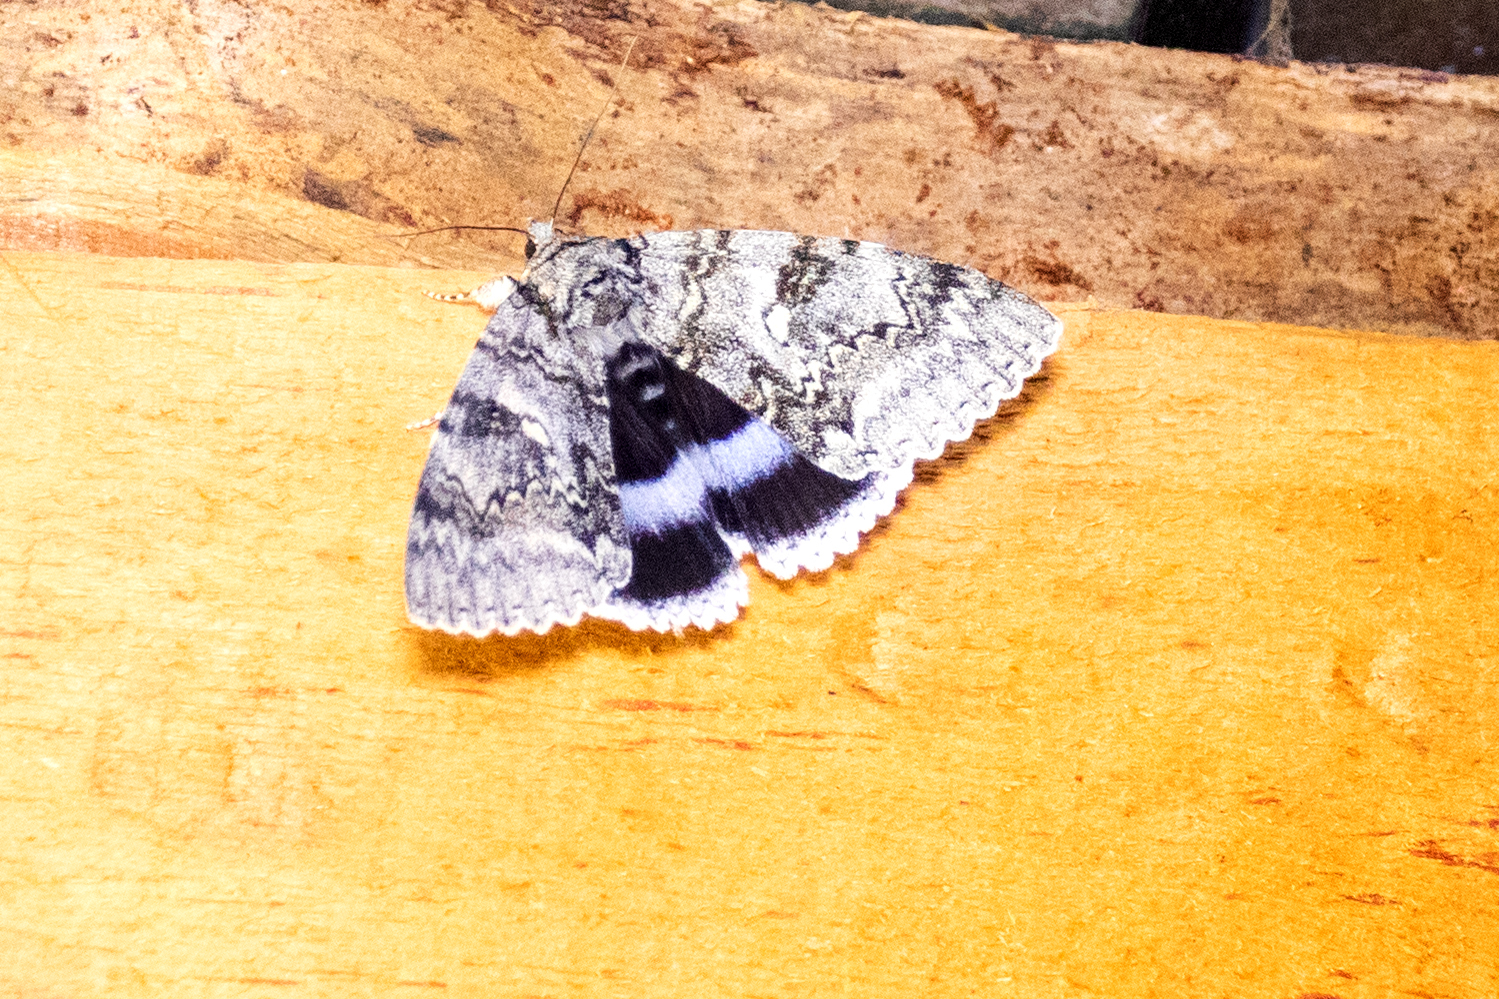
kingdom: Animalia
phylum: Arthropoda
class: Insecta
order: Lepidoptera
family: Erebidae
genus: Catocala
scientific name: Catocala fraxini
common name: Clifden nonpareil
